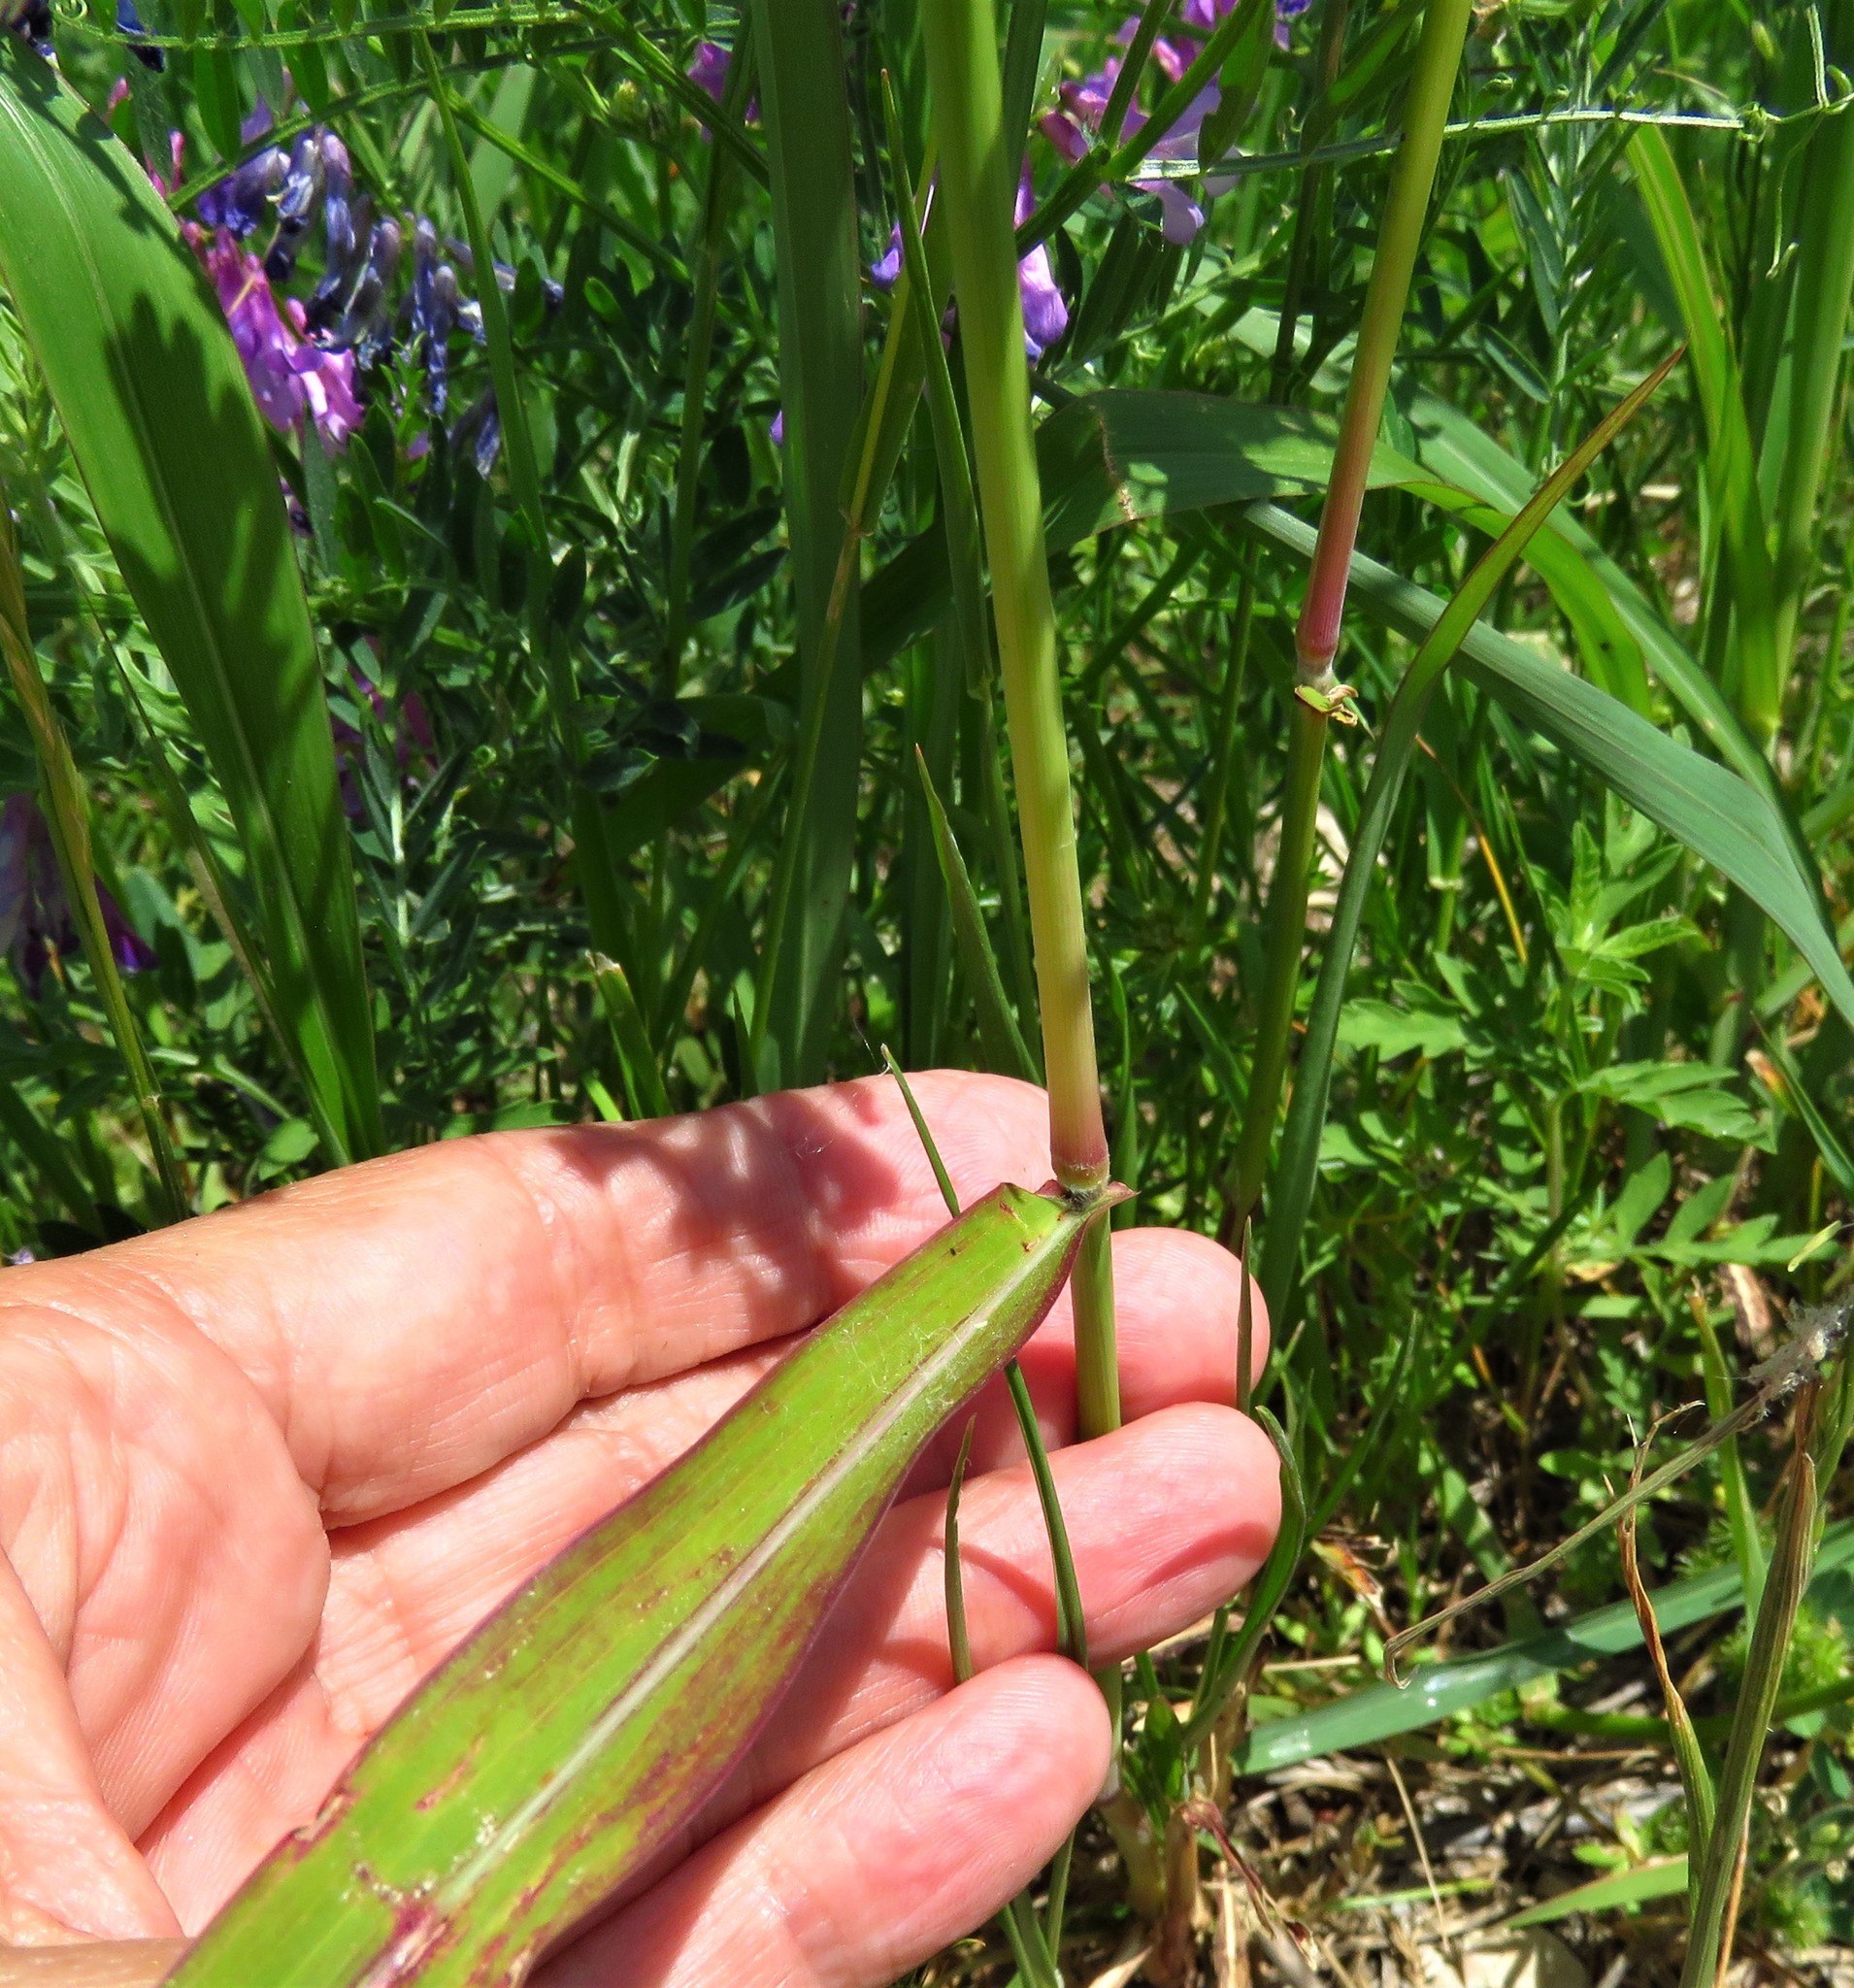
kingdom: Plantae
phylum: Tracheophyta
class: Liliopsida
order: Poales
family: Poaceae
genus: Sorghum
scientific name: Sorghum halepense
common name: Johnson-grass
